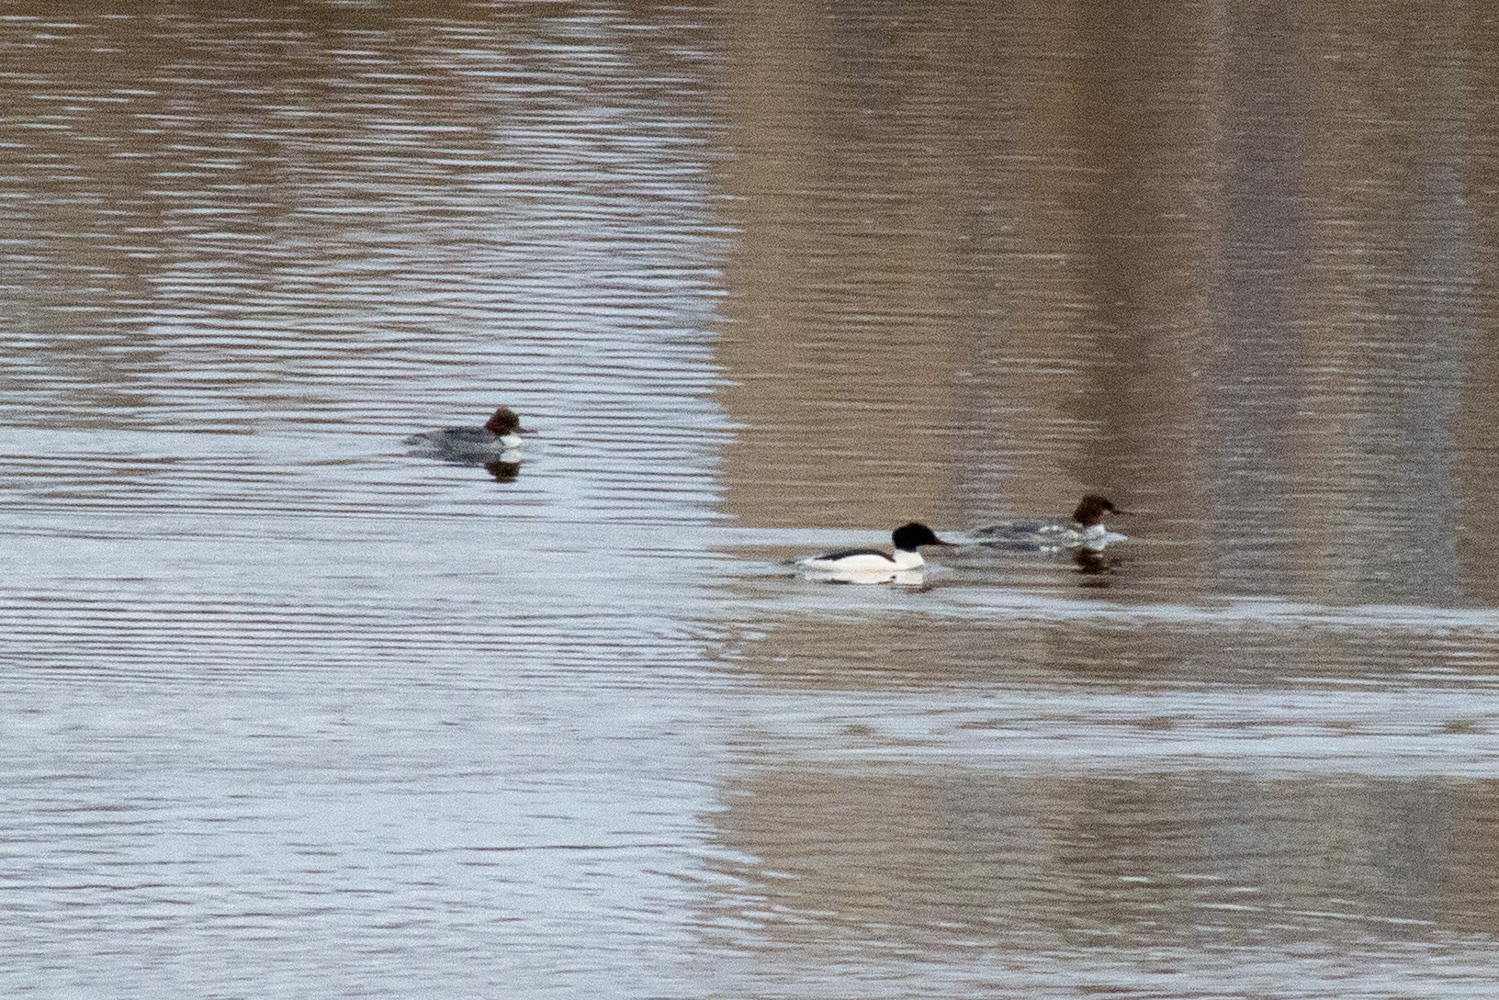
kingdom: Animalia
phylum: Chordata
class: Aves
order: Anseriformes
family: Anatidae
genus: Mergus
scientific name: Mergus merganser
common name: Common merganser
